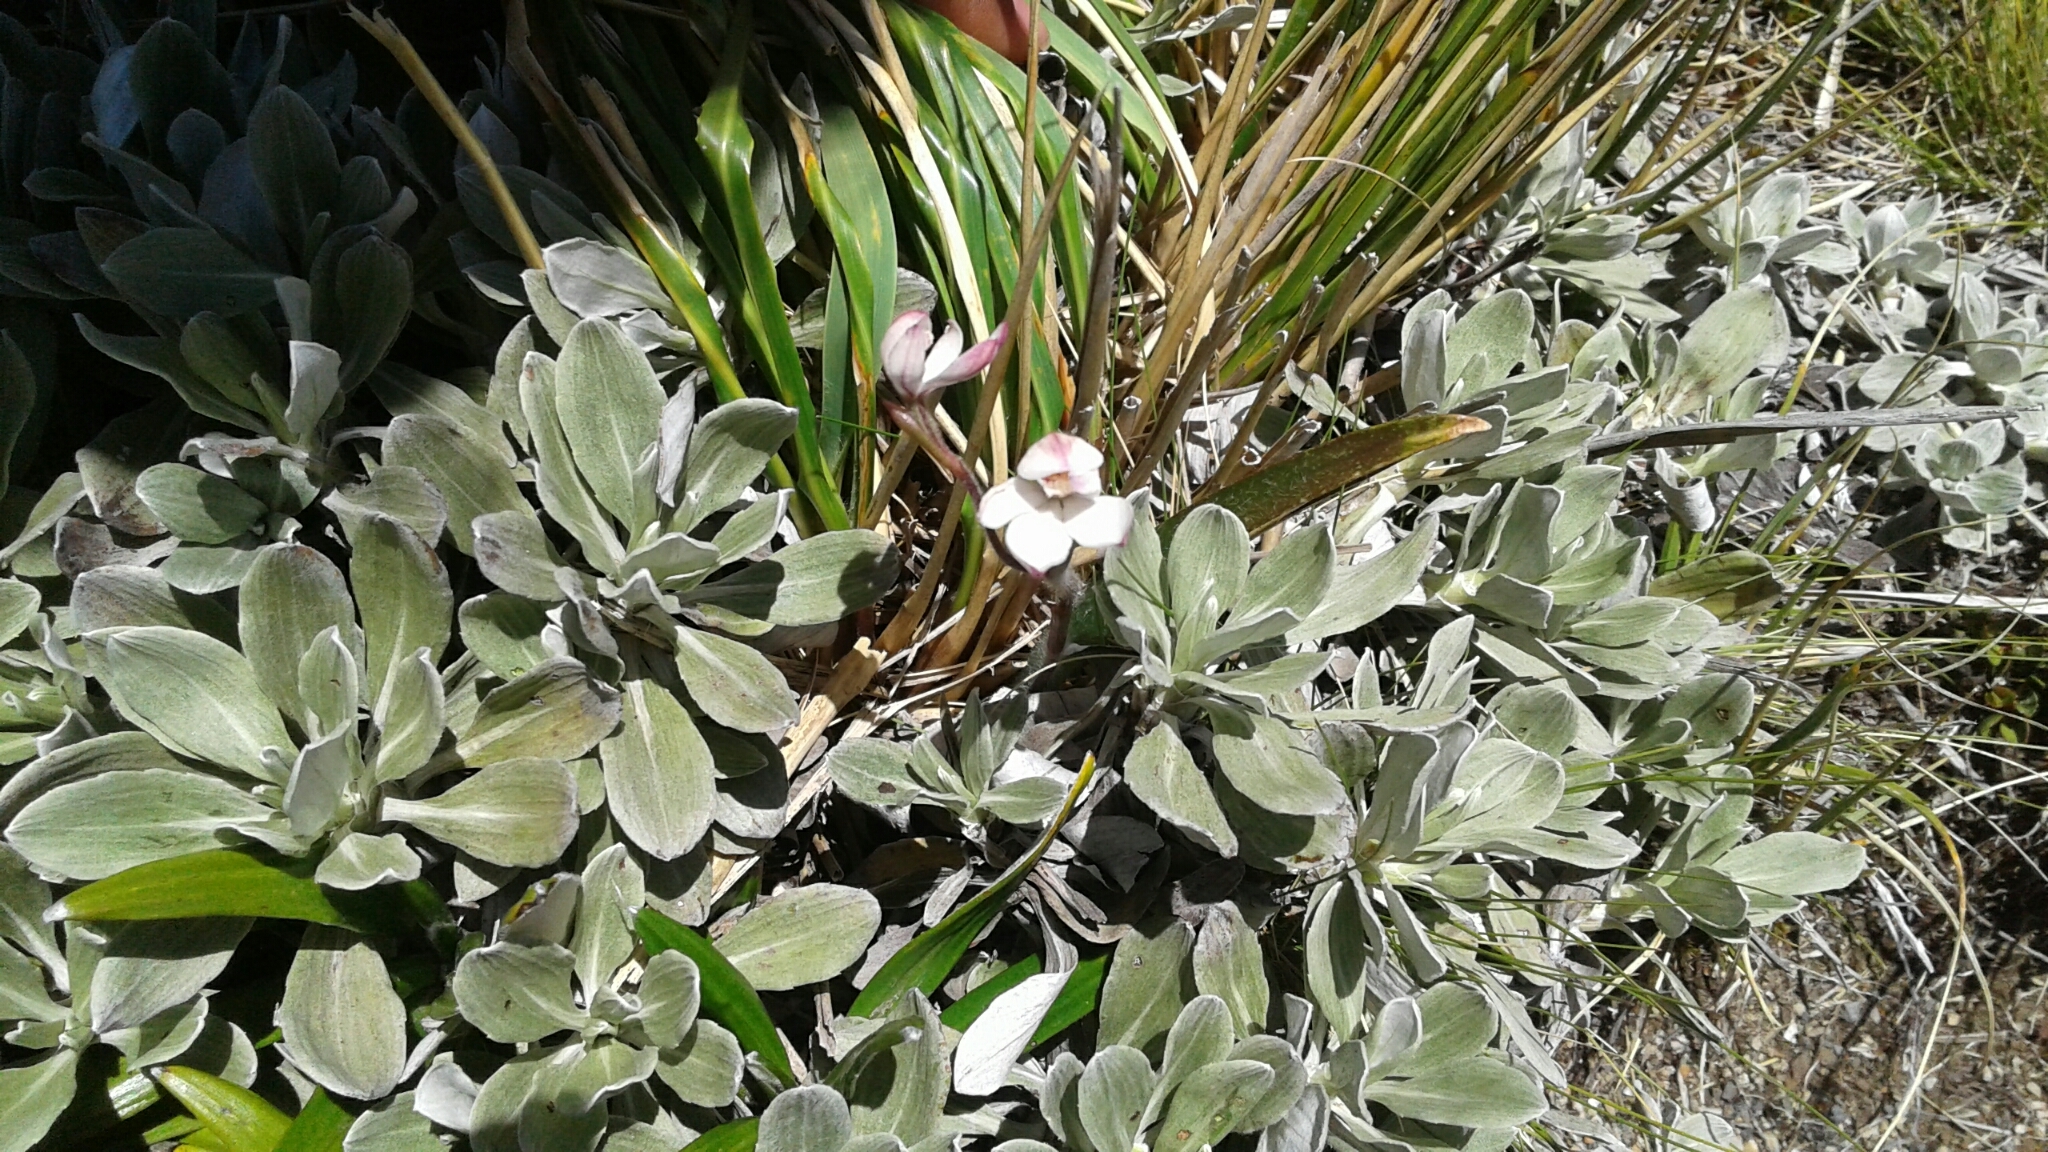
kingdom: Plantae
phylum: Tracheophyta
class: Liliopsida
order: Asparagales
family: Orchidaceae
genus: Caladenia
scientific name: Caladenia lyallii
